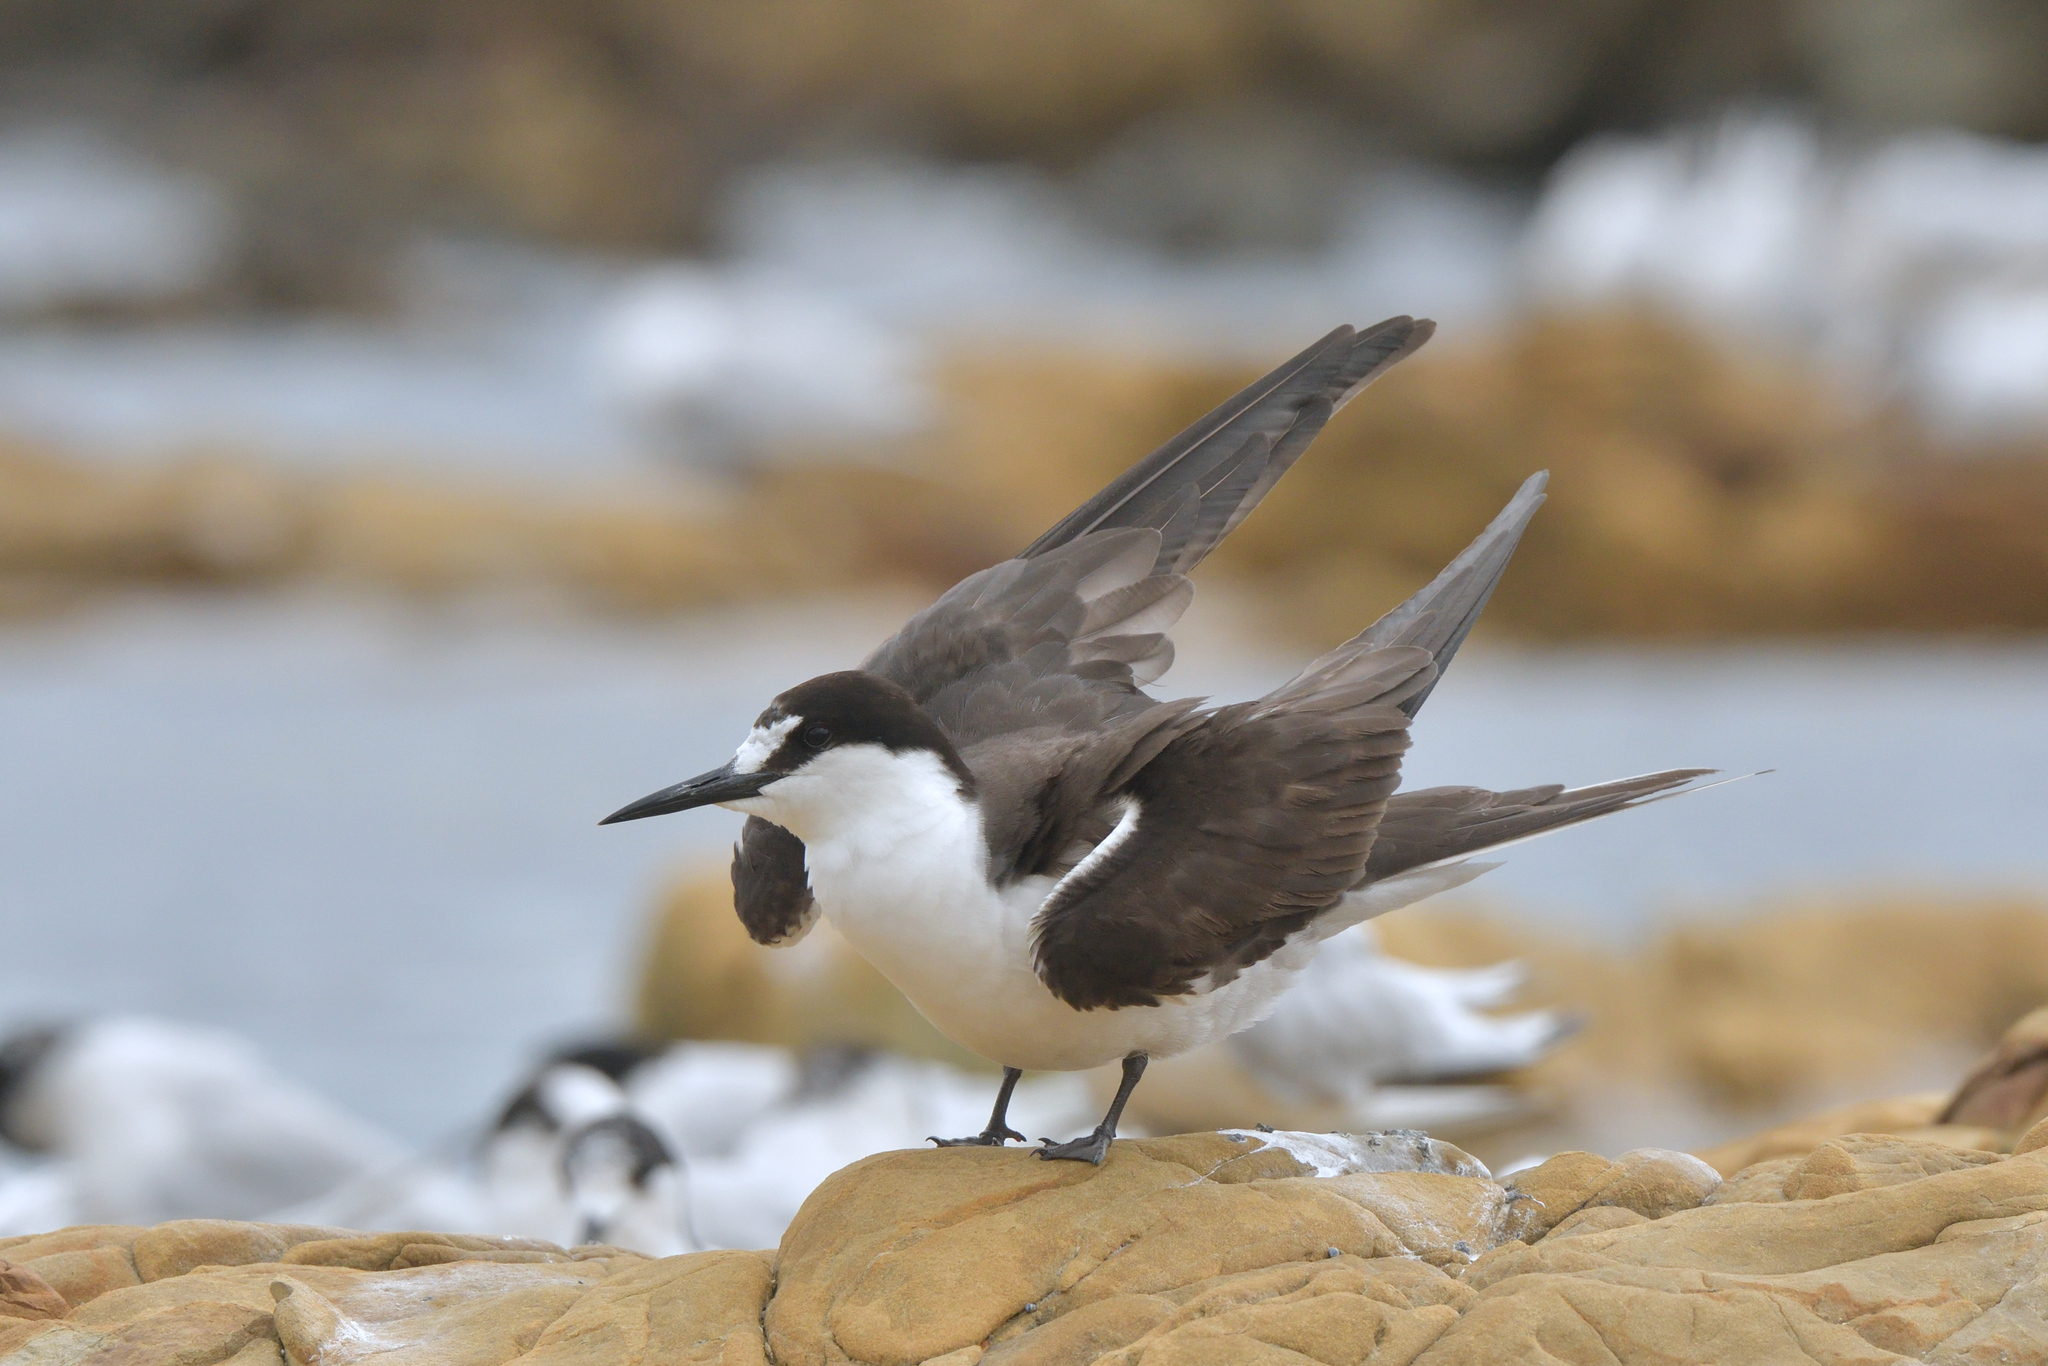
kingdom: Animalia
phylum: Chordata
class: Aves
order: Charadriiformes
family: Laridae
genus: Onychoprion
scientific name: Onychoprion fuscatus
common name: Sooty tern
